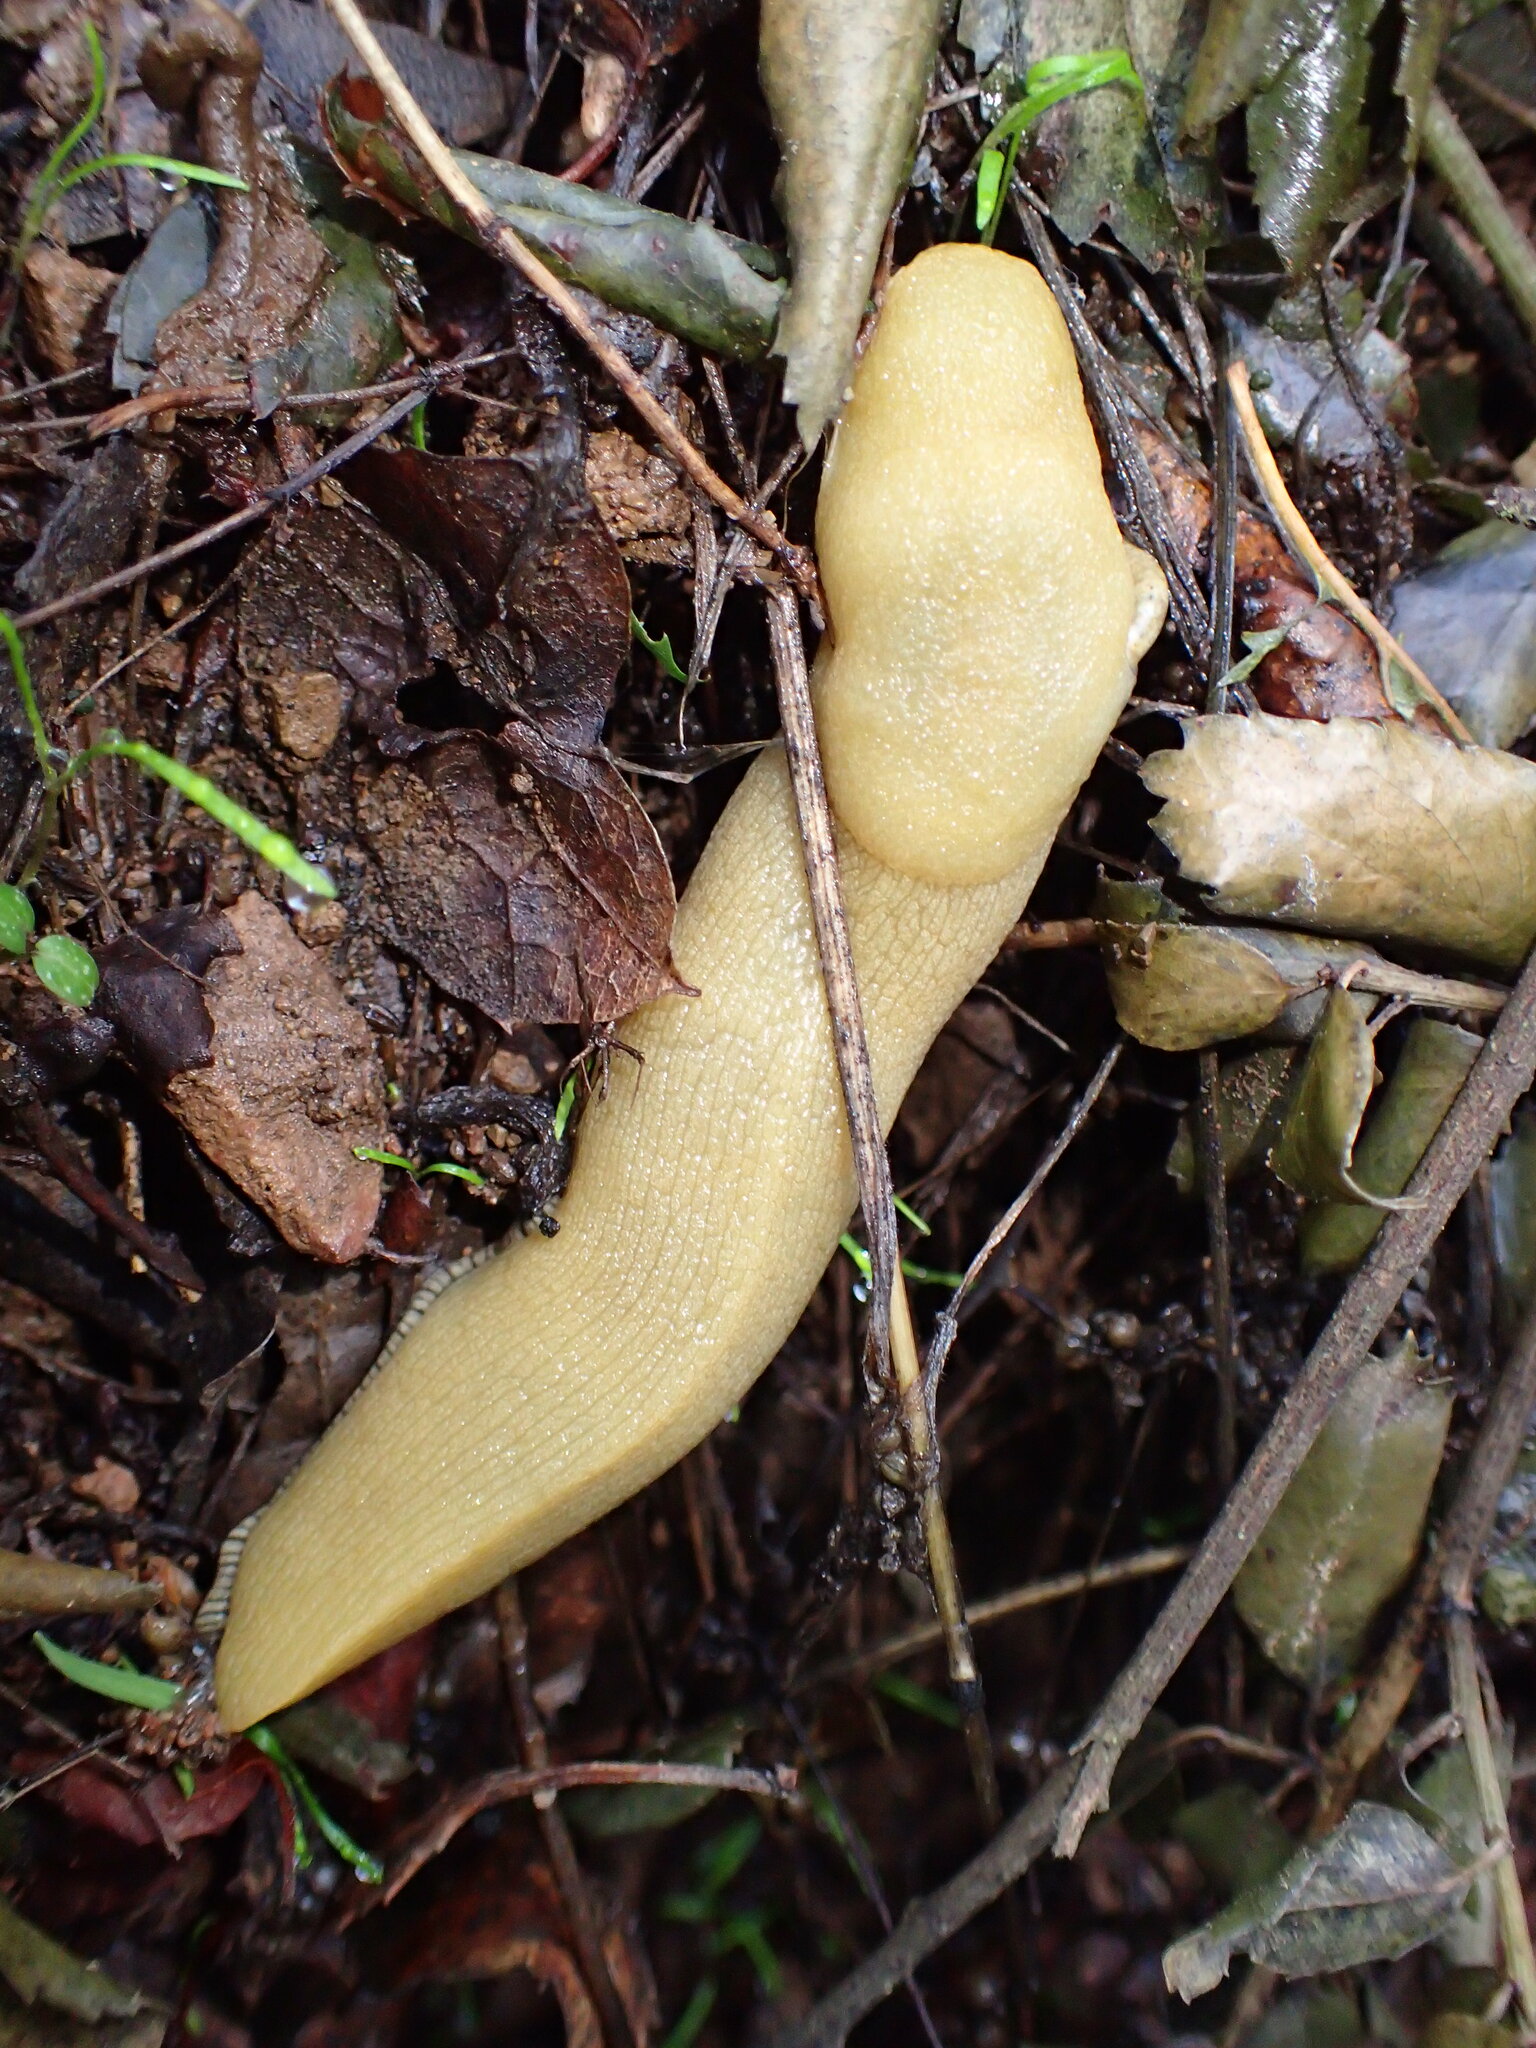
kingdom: Animalia
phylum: Mollusca
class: Gastropoda
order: Stylommatophora
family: Ariolimacidae
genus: Ariolimax
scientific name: Ariolimax stramineus
